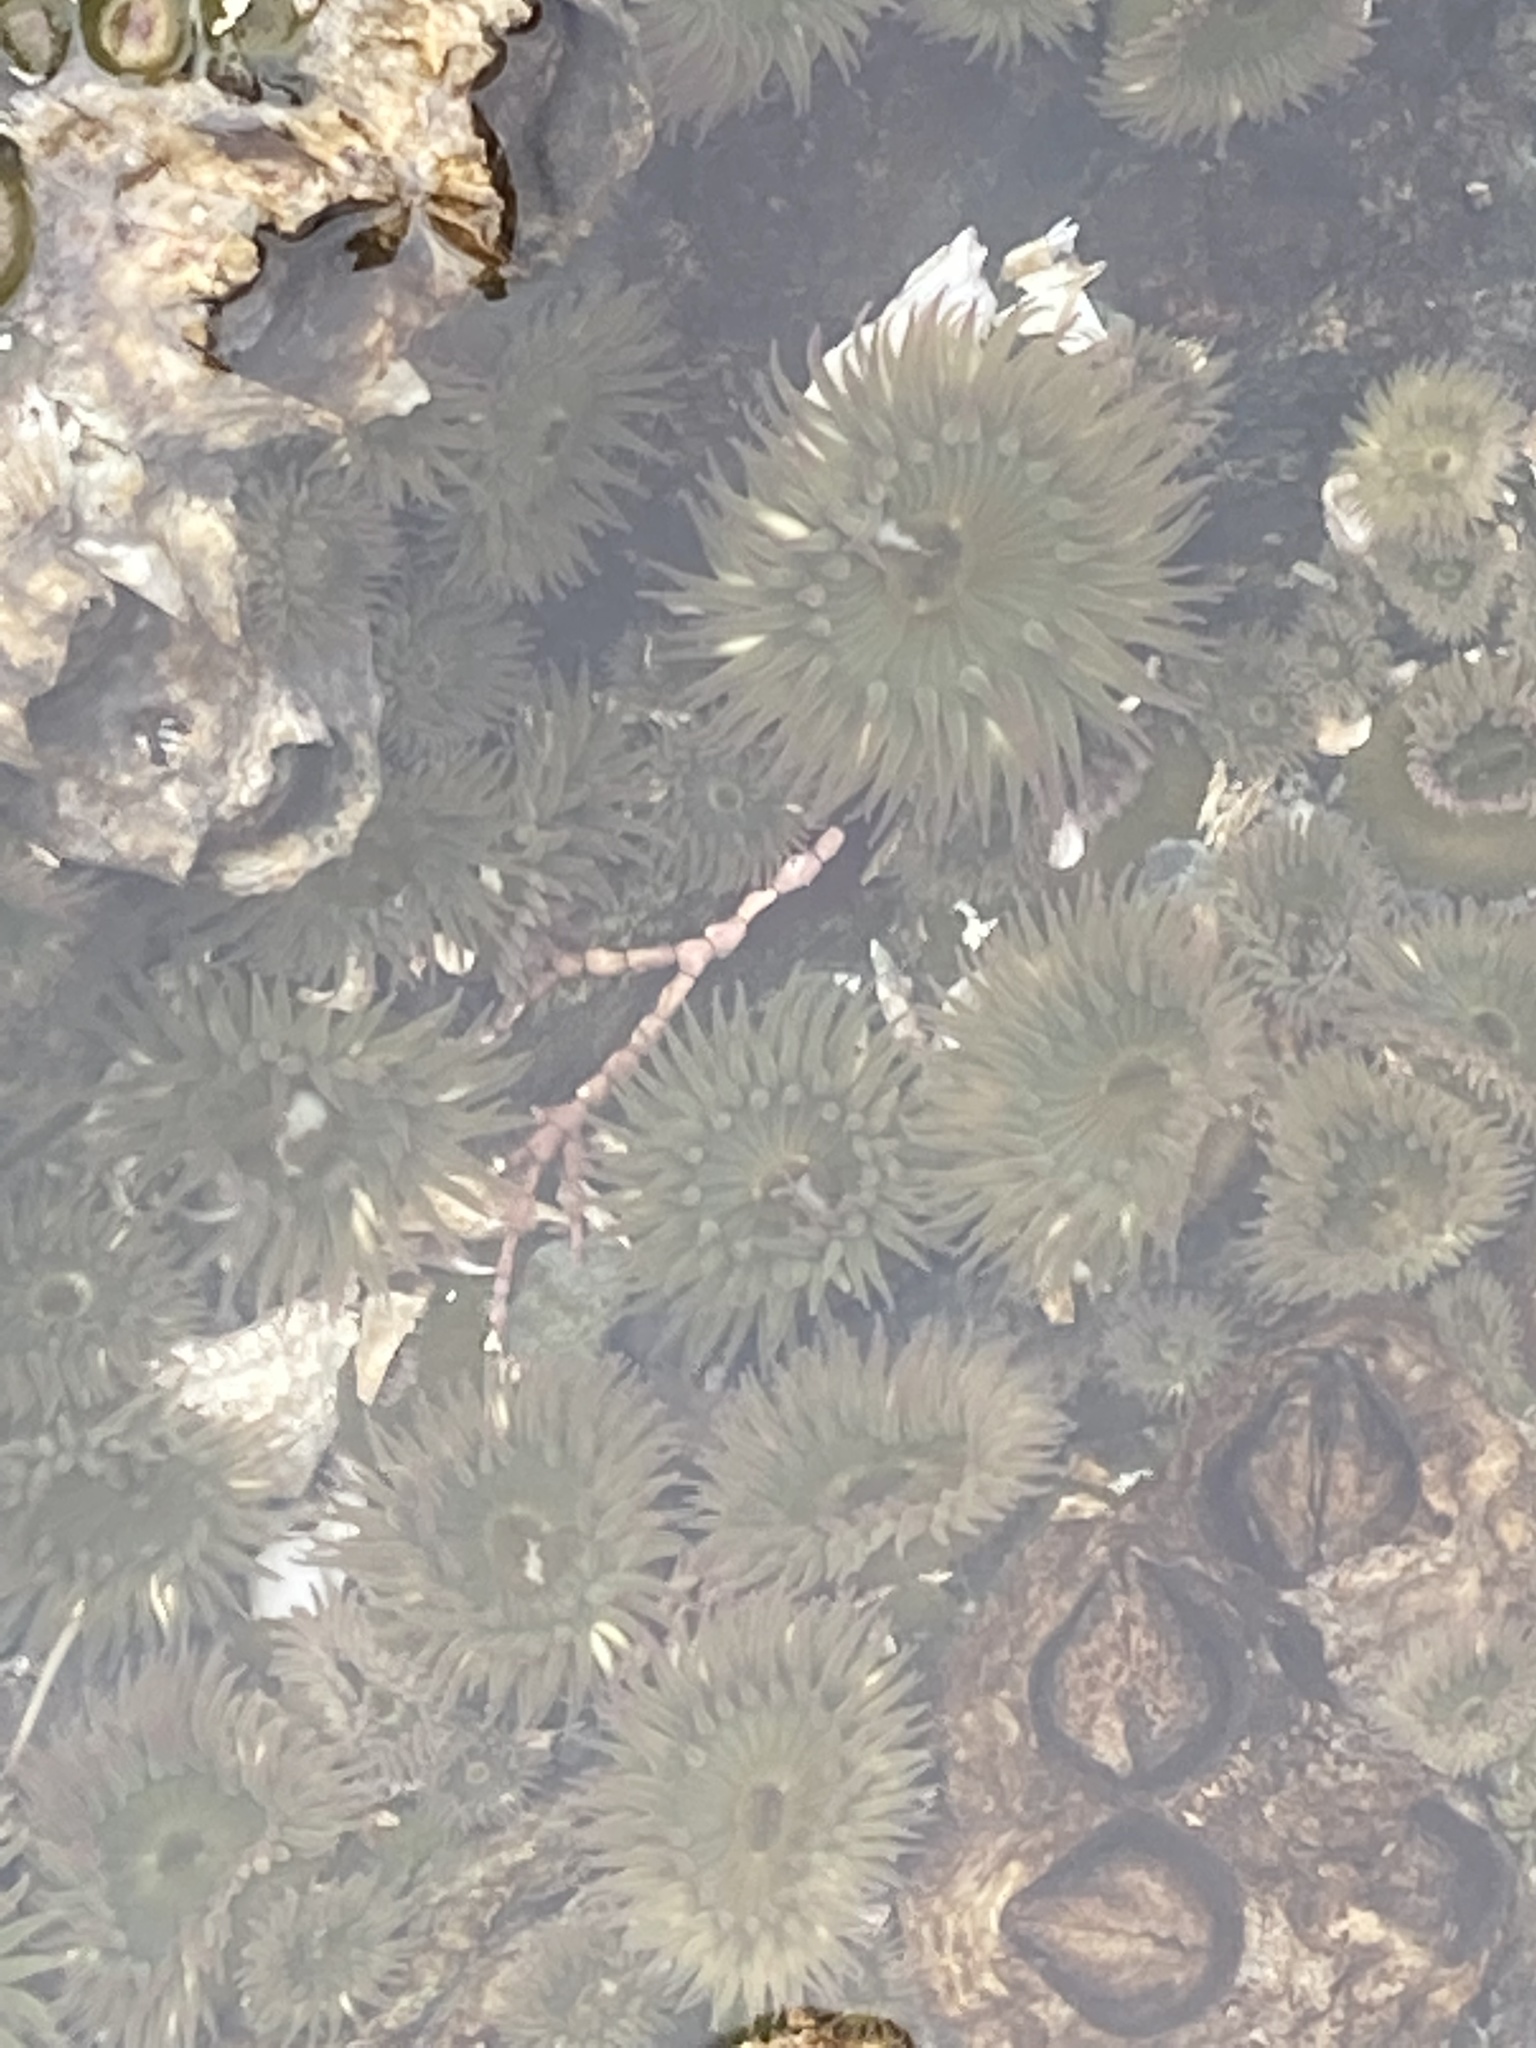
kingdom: Animalia
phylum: Cnidaria
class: Anthozoa
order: Actiniaria
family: Actiniidae
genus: Anthopleura
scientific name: Anthopleura elegantissima
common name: Clonal anemone
